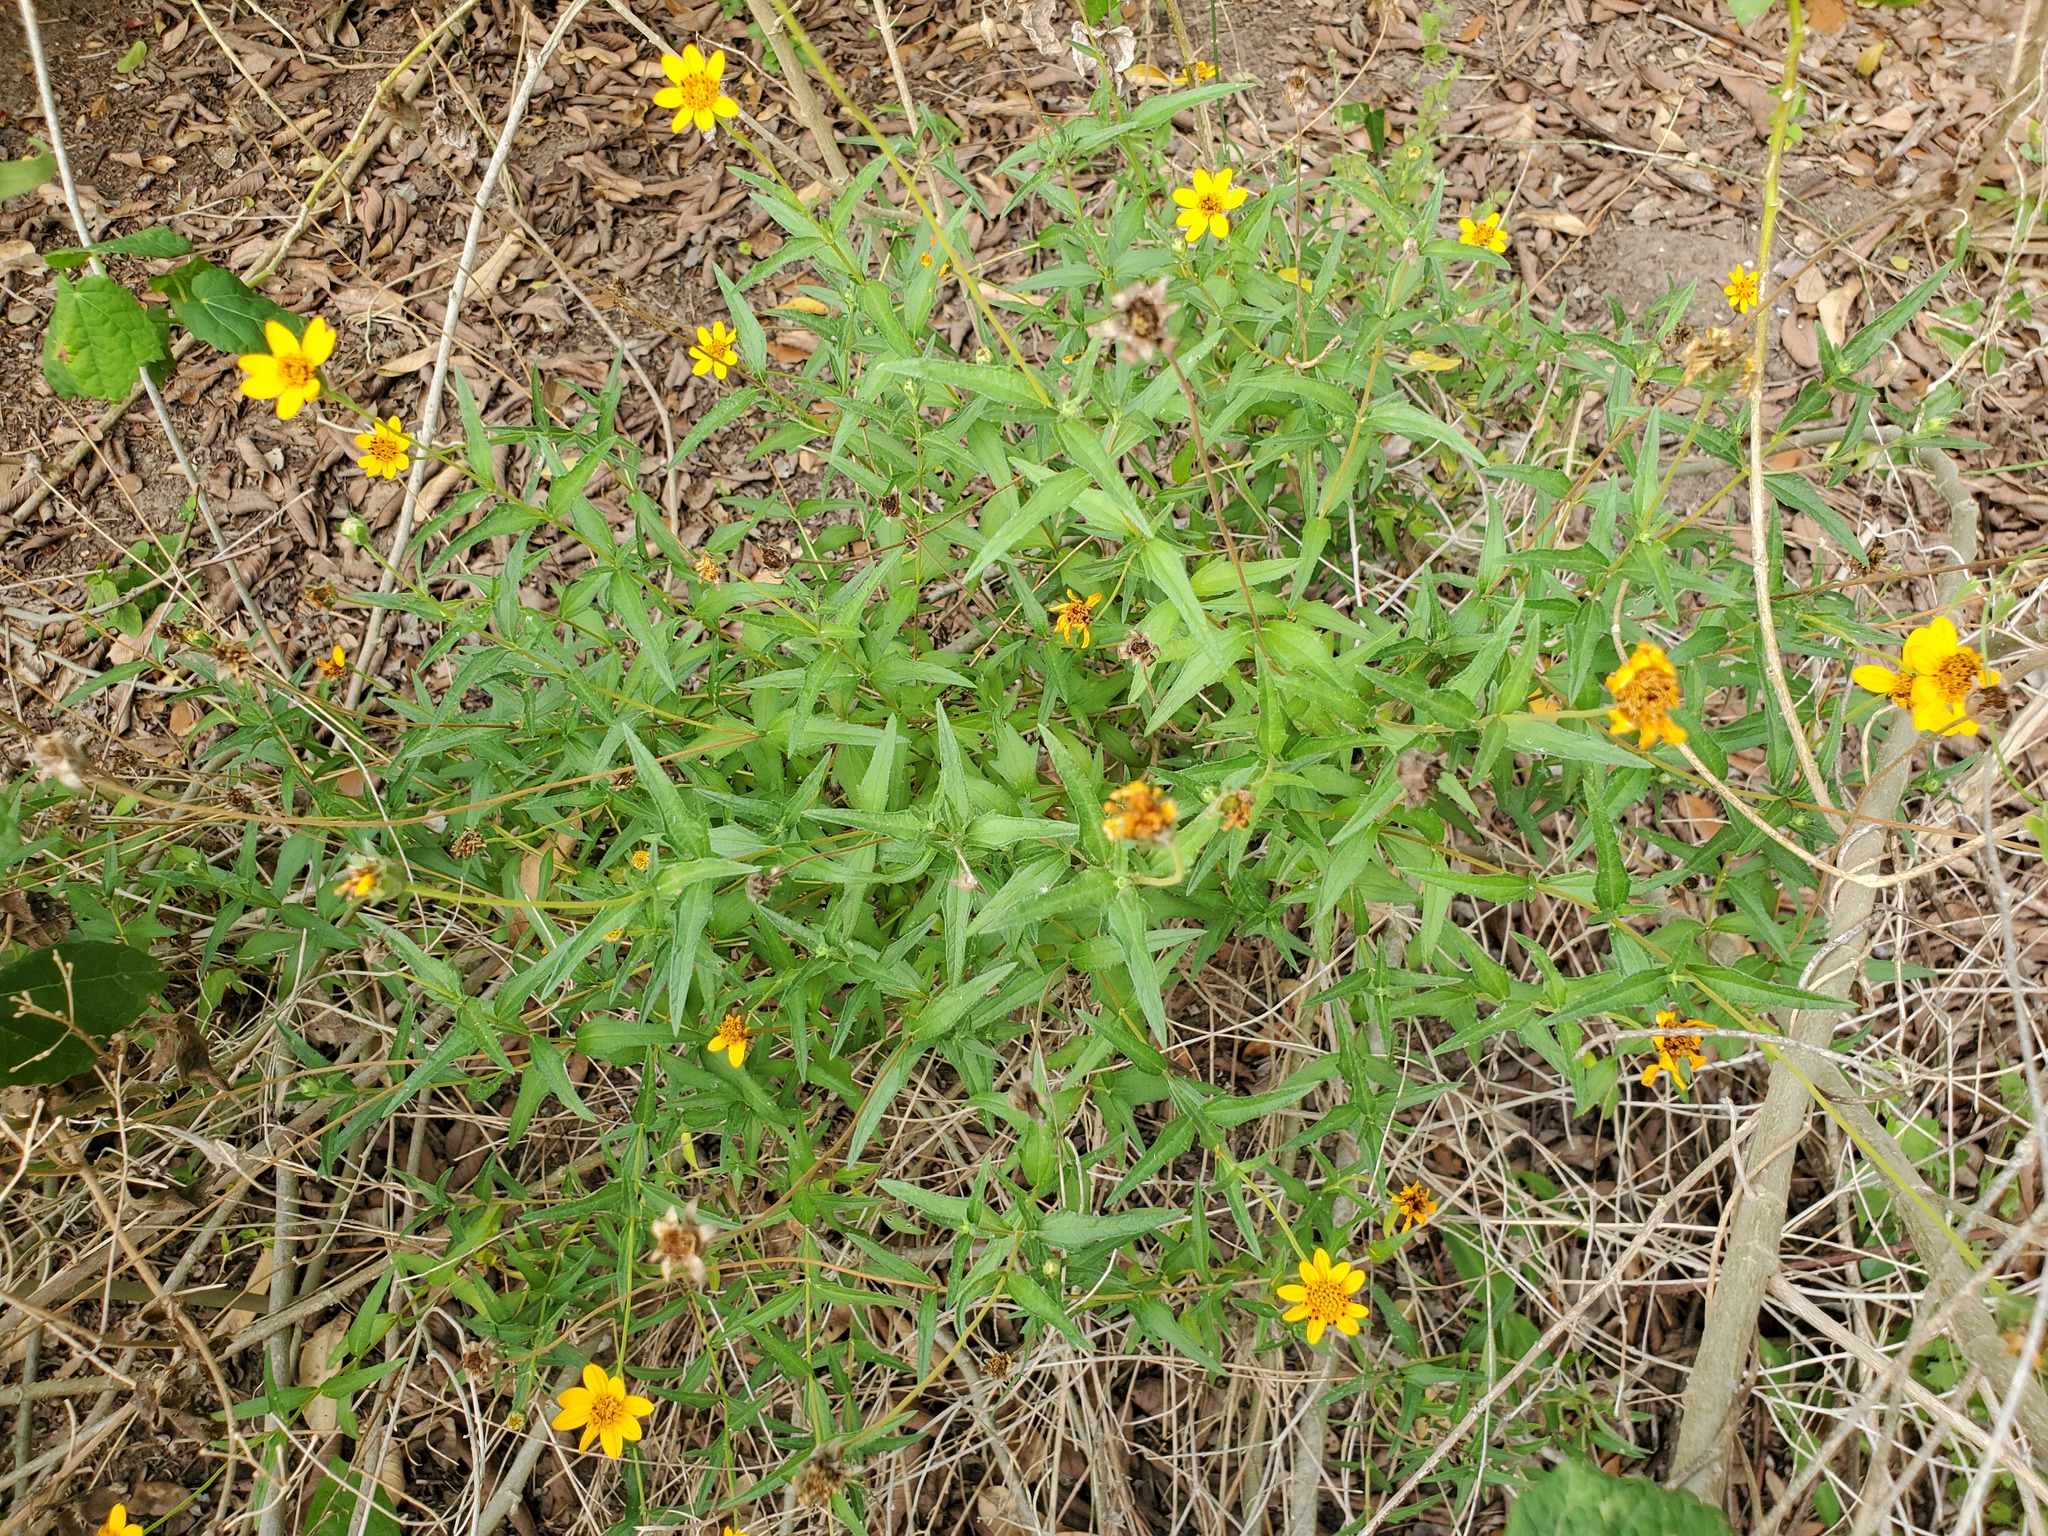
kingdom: Plantae
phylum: Tracheophyta
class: Magnoliopsida
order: Asterales
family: Asteraceae
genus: Wedelia
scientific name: Wedelia acapulcensis
